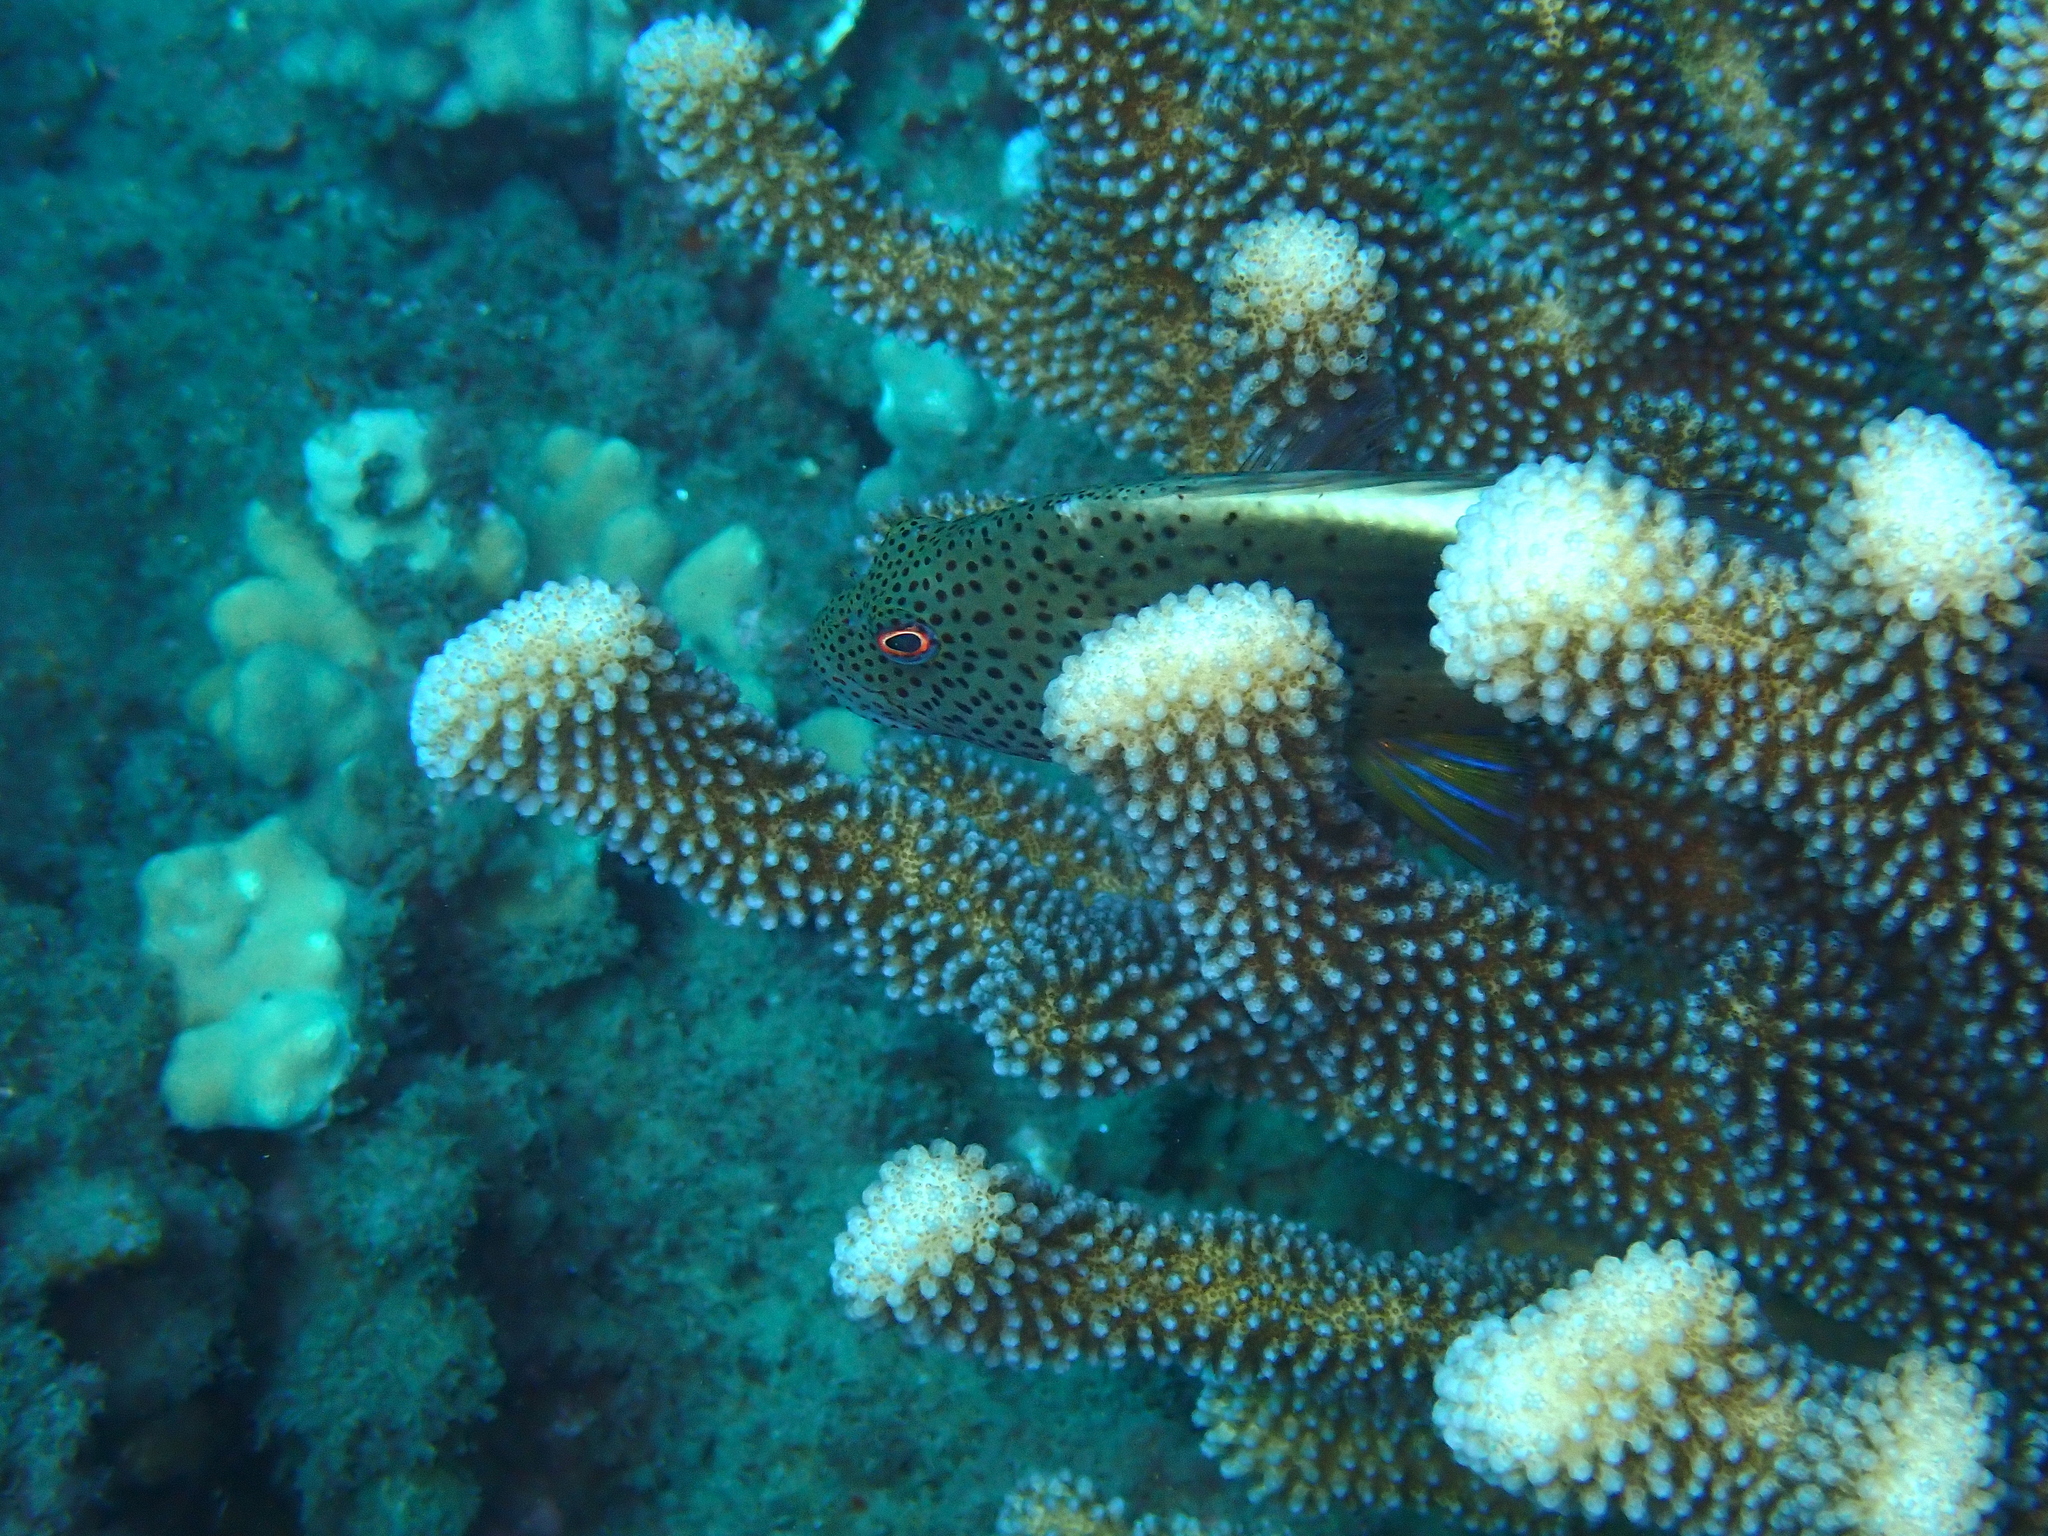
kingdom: Animalia
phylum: Chordata
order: Perciformes
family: Cirrhitidae
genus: Paracirrhites
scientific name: Paracirrhites forsteri
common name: Freckled hawkfish
